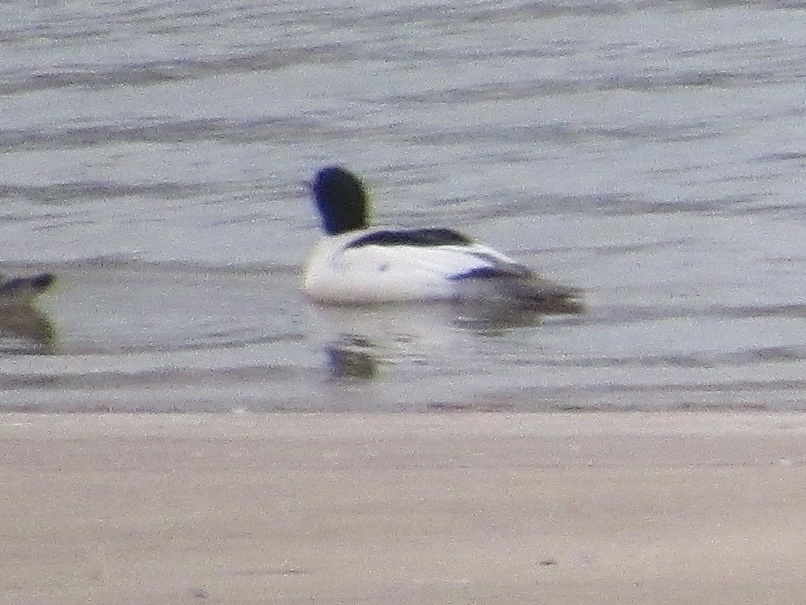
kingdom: Animalia
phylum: Chordata
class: Aves
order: Anseriformes
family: Anatidae
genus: Mergus
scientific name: Mergus merganser
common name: Common merganser
